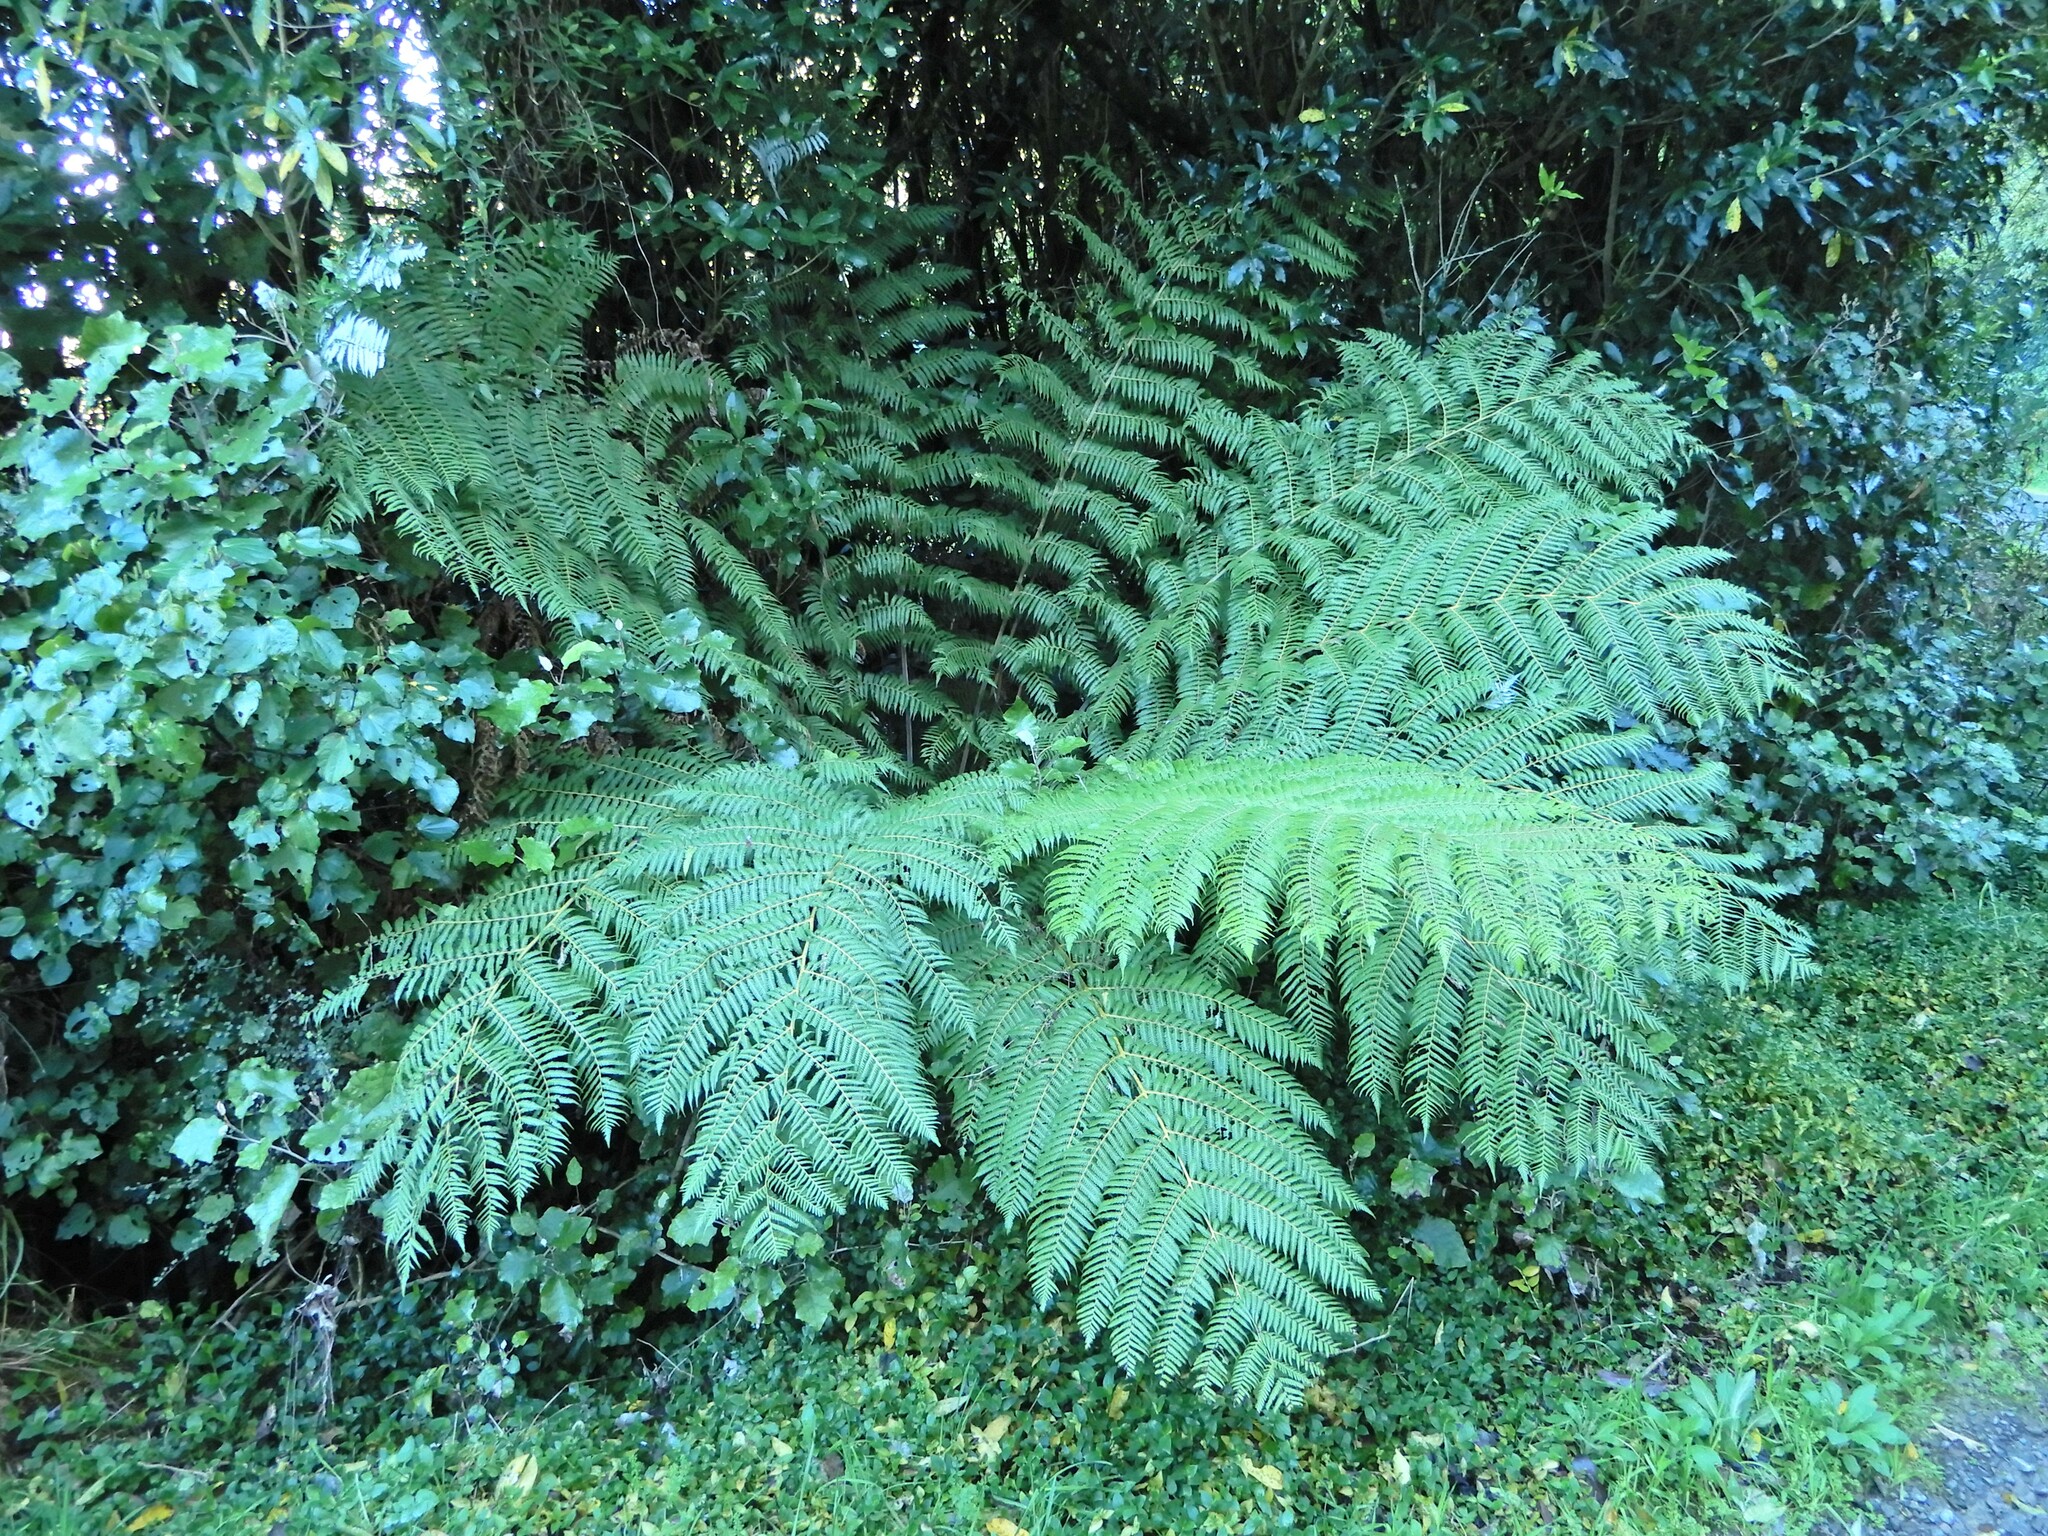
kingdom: Plantae
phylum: Tracheophyta
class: Polypodiopsida
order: Cyatheales
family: Cyatheaceae
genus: Alsophila
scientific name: Alsophila dealbata
